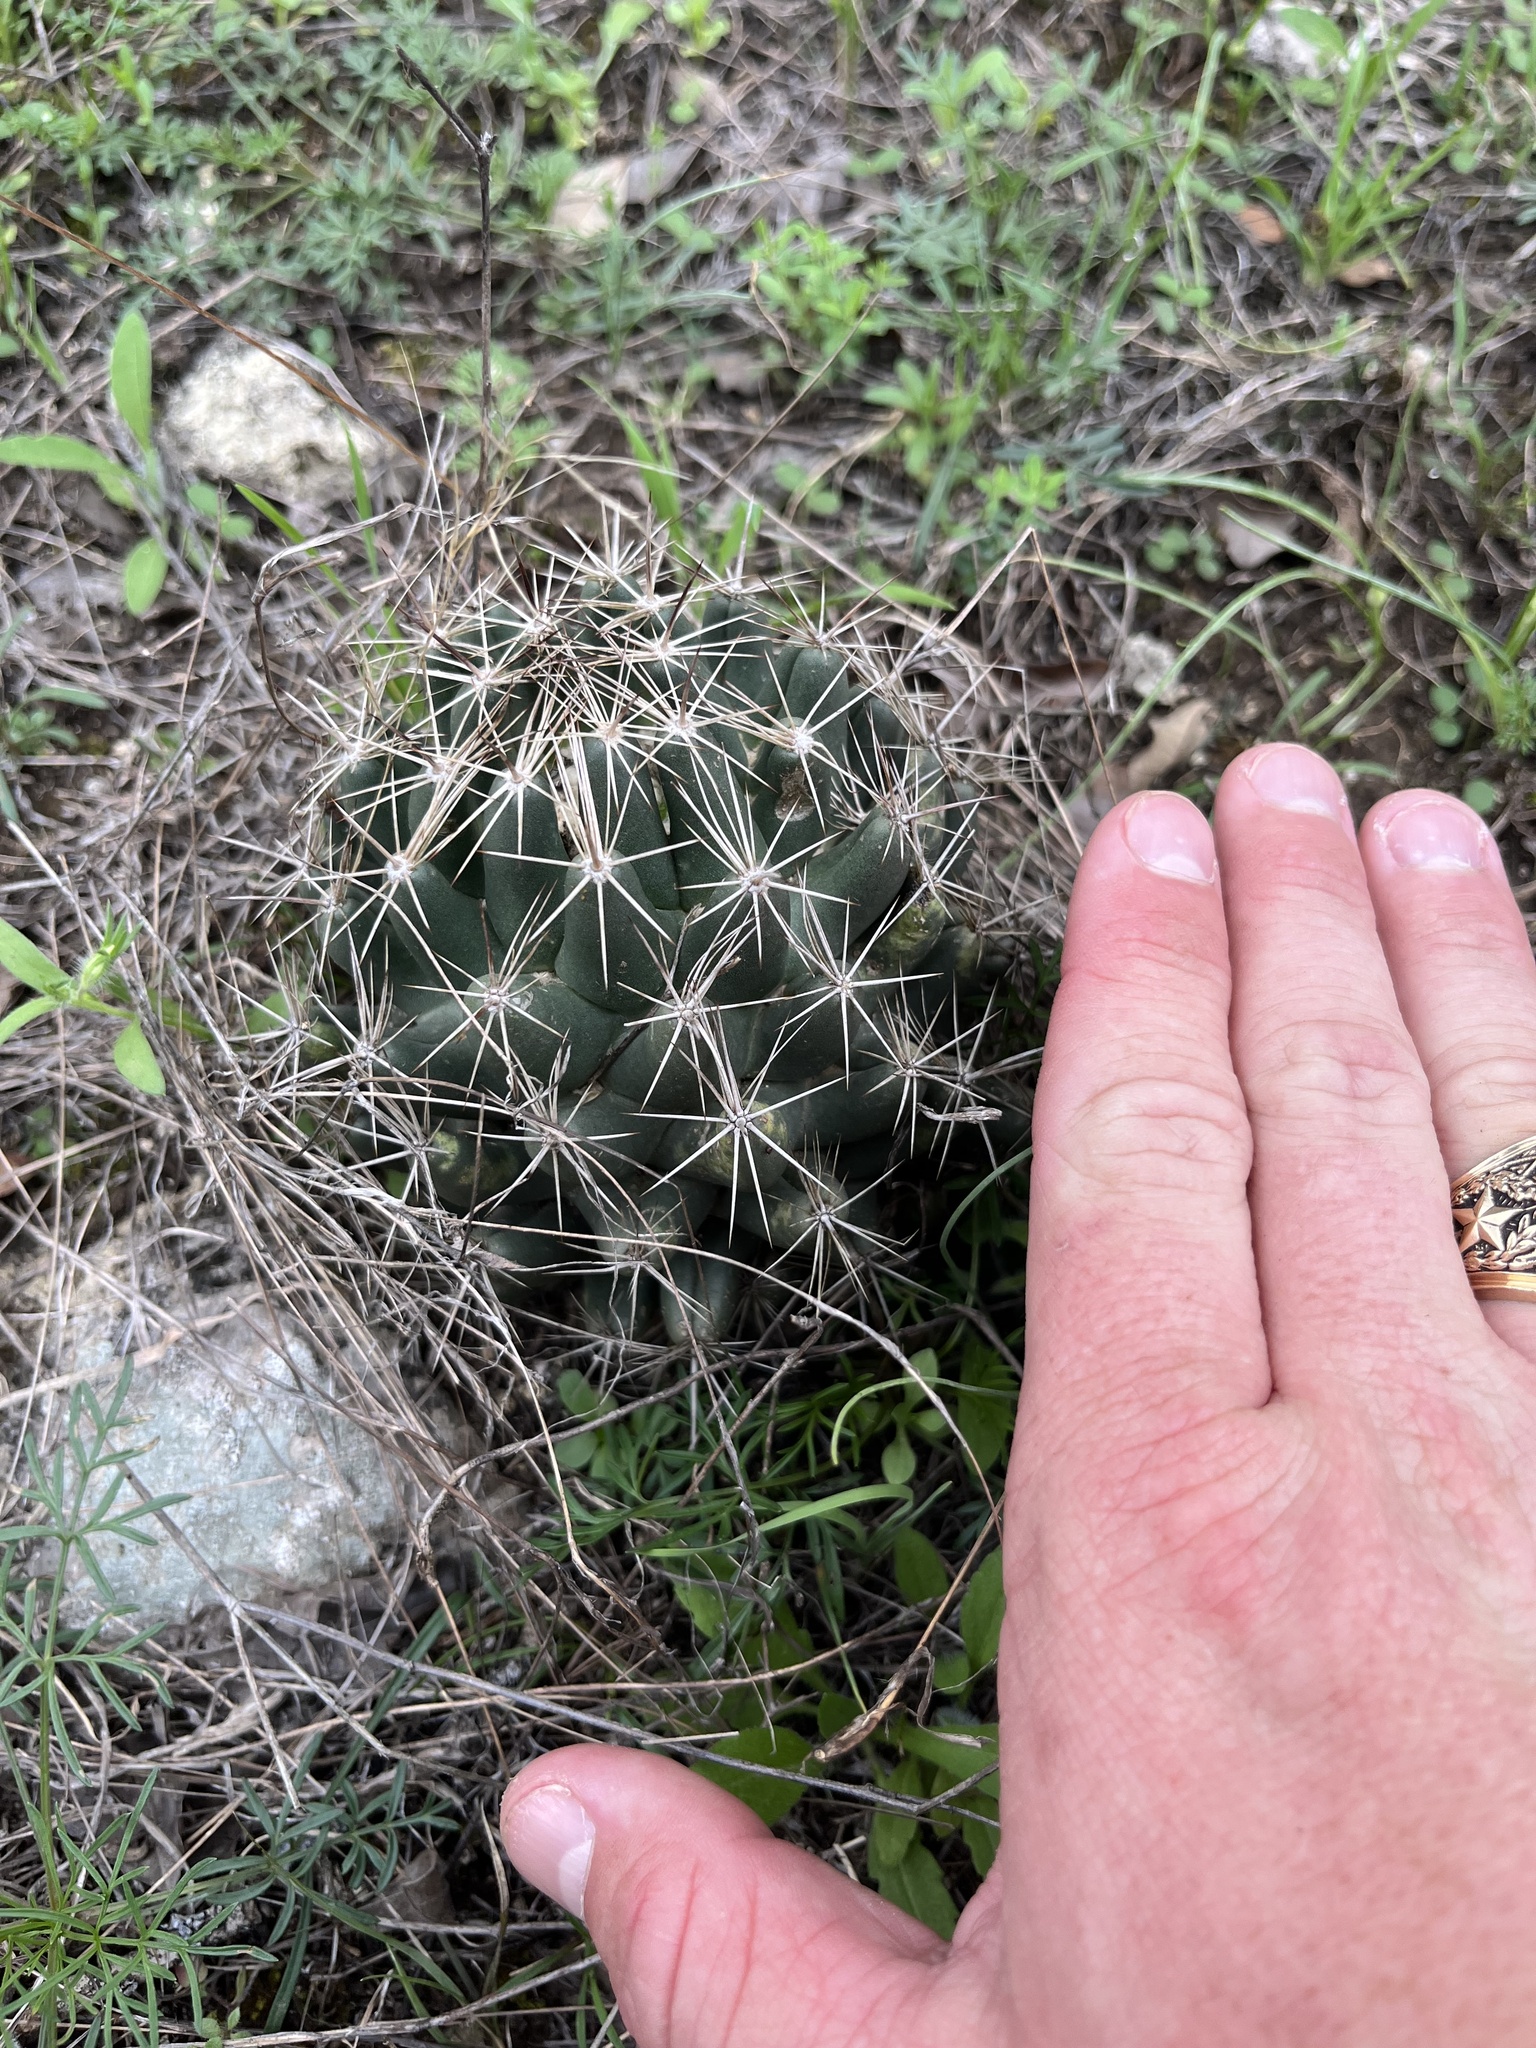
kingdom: Plantae
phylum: Tracheophyta
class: Magnoliopsida
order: Caryophyllales
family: Cactaceae
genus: Coryphantha
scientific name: Coryphantha sulcata
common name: Finger cactus
